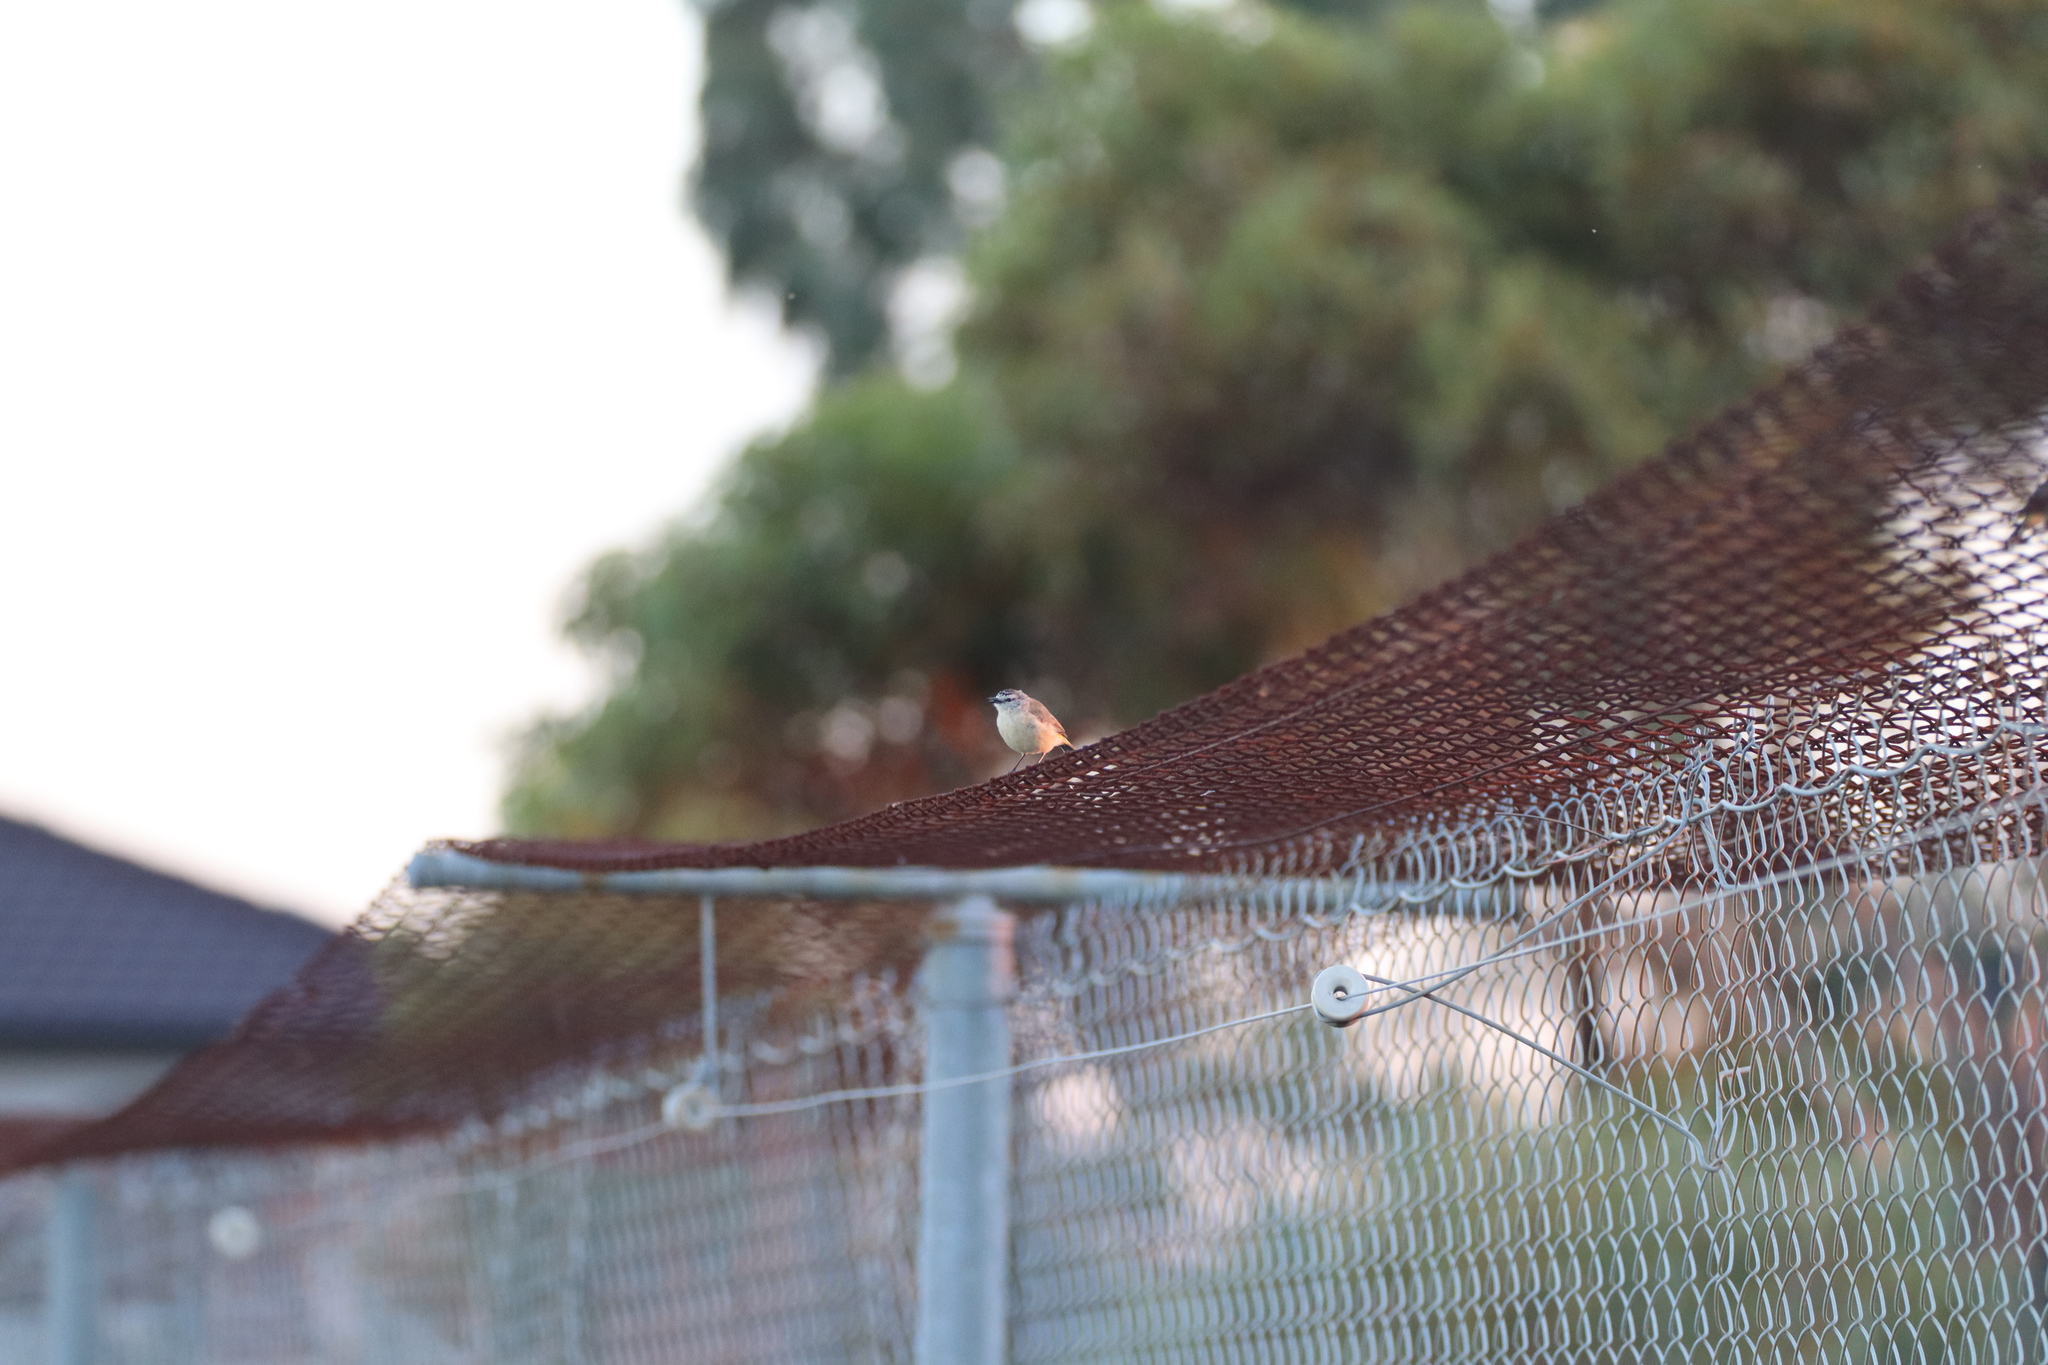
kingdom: Animalia
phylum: Chordata
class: Aves
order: Passeriformes
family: Acanthizidae
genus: Acanthiza
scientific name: Acanthiza chrysorrhoa
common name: Yellow-rumped thornbill
